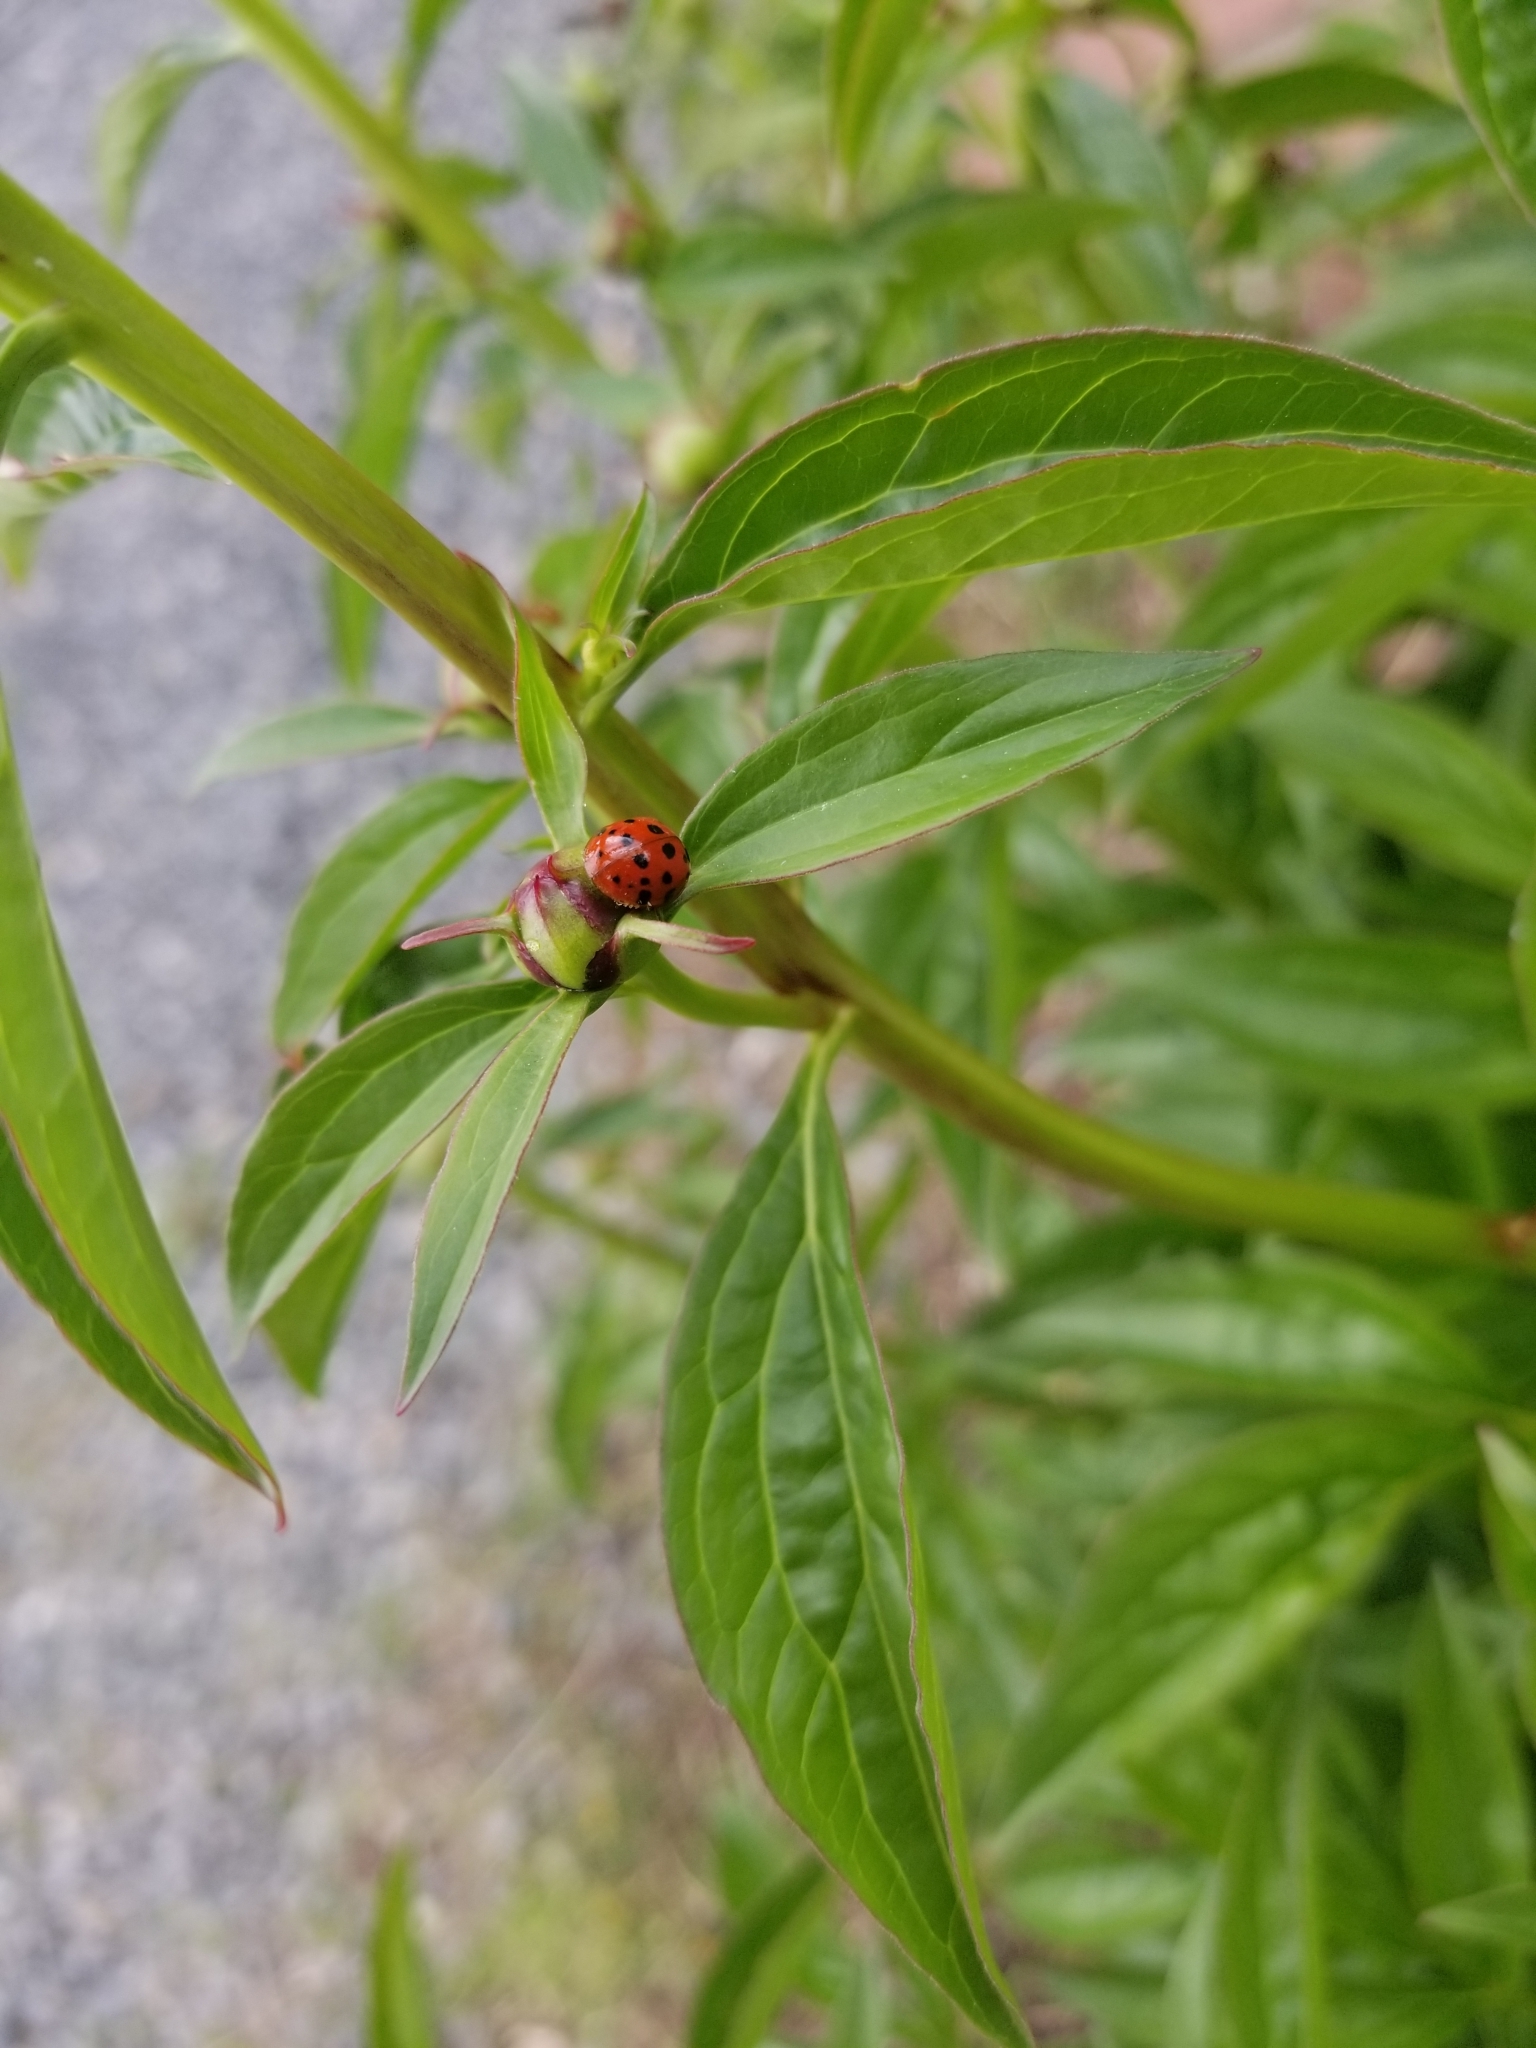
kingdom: Animalia
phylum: Arthropoda
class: Insecta
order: Coleoptera
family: Coccinellidae
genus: Harmonia
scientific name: Harmonia axyridis
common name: Harlequin ladybird
